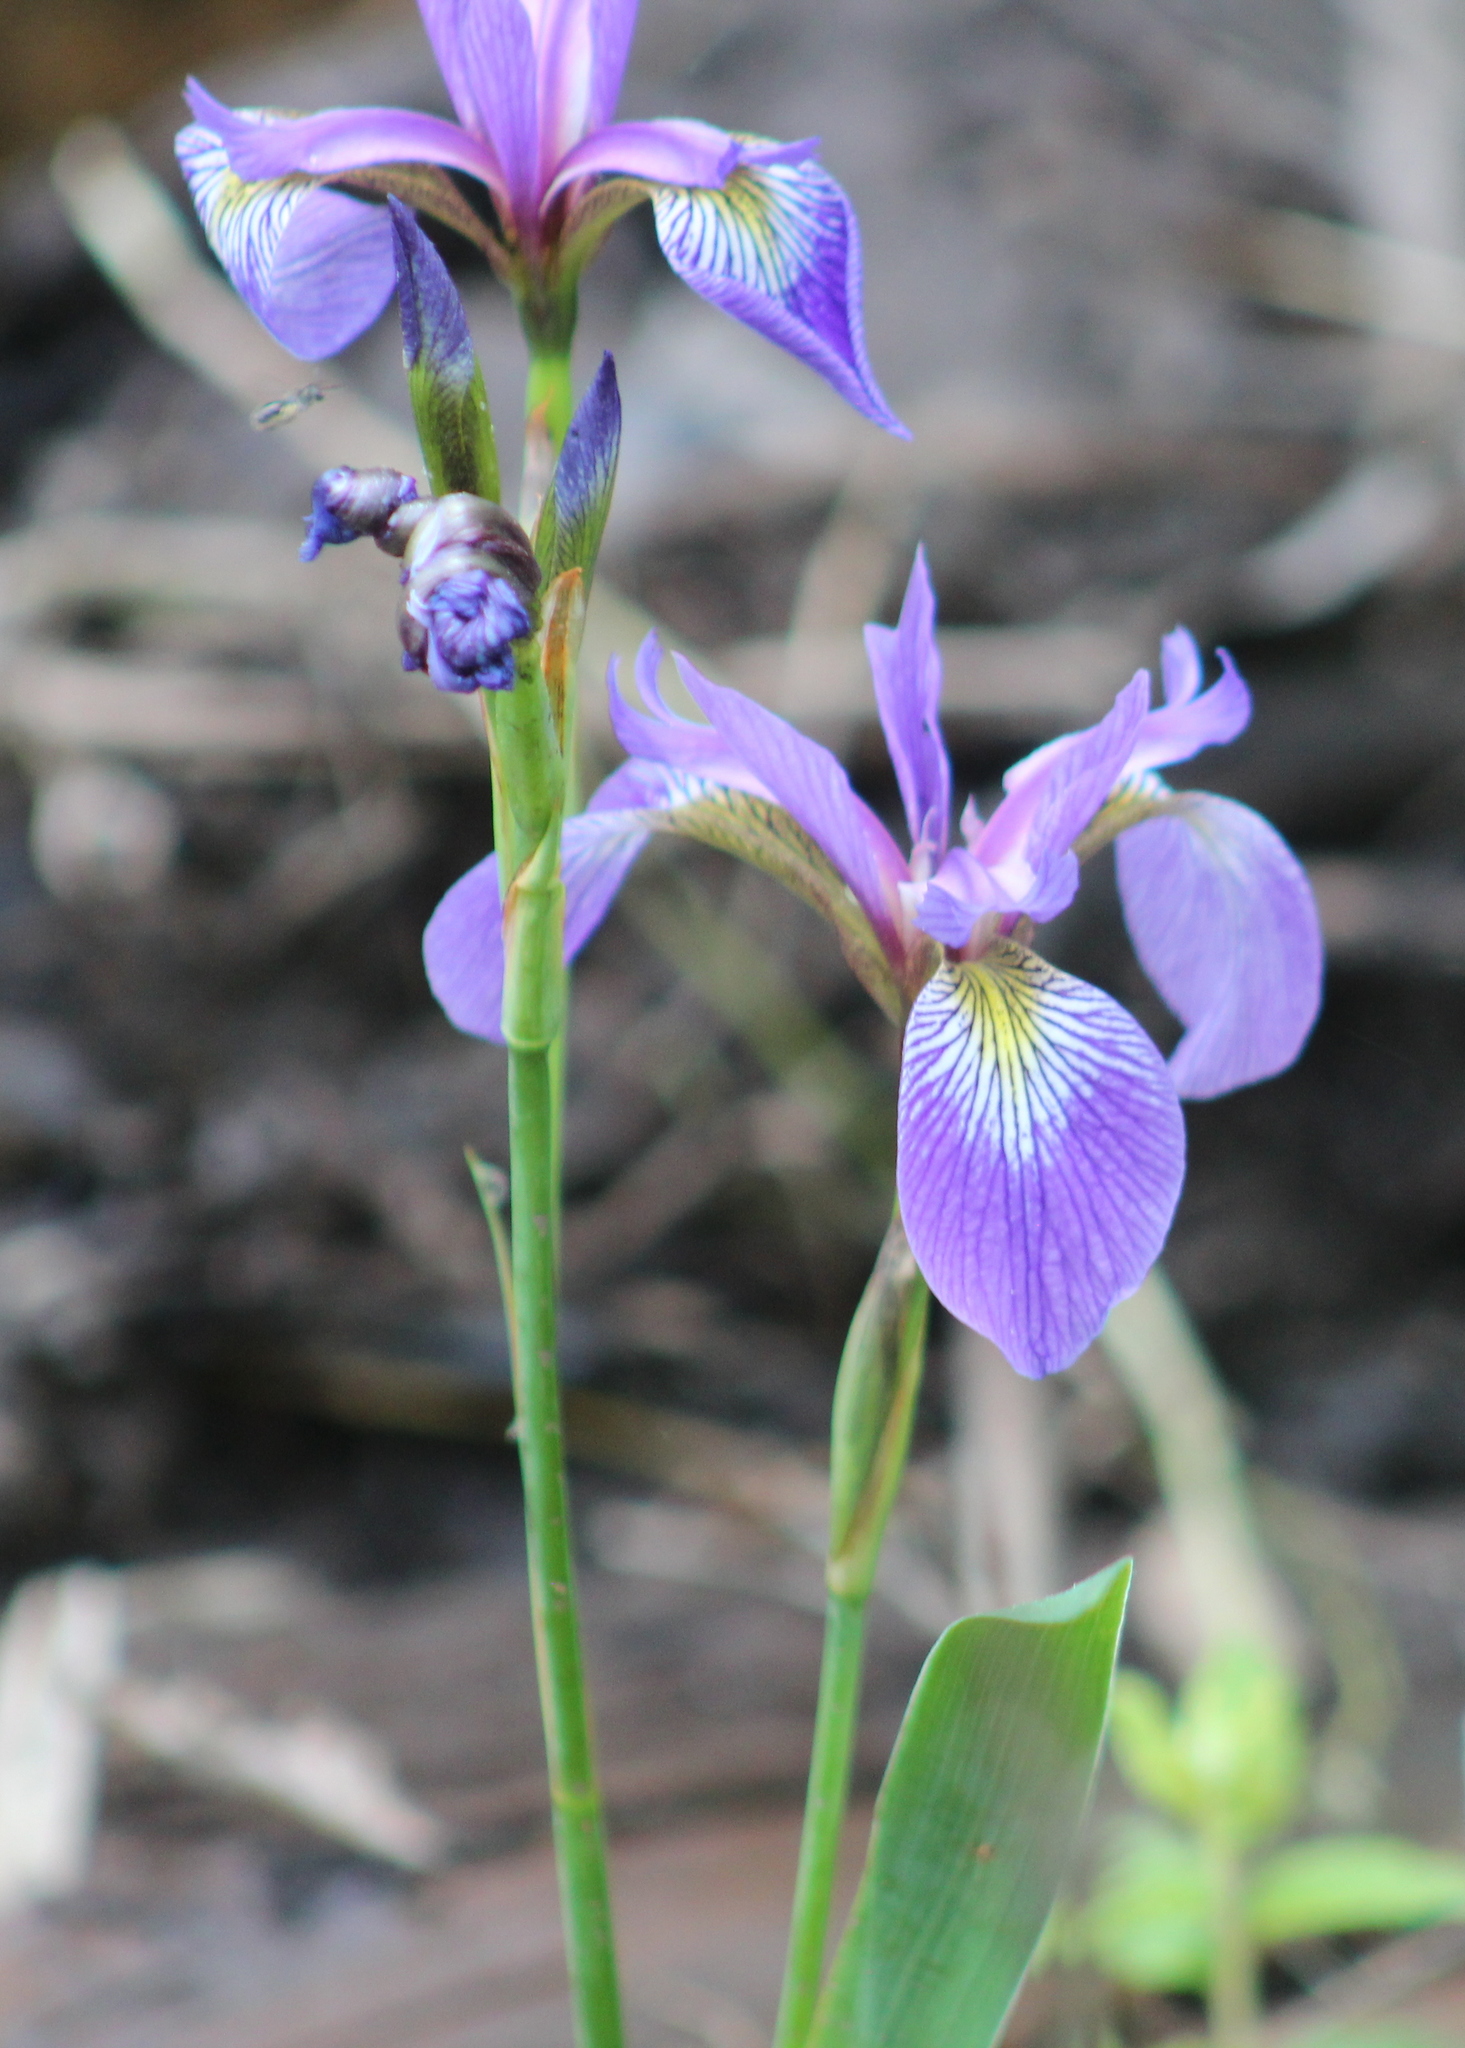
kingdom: Plantae
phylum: Tracheophyta
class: Liliopsida
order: Asparagales
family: Iridaceae
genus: Iris
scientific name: Iris versicolor
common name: Purple iris
